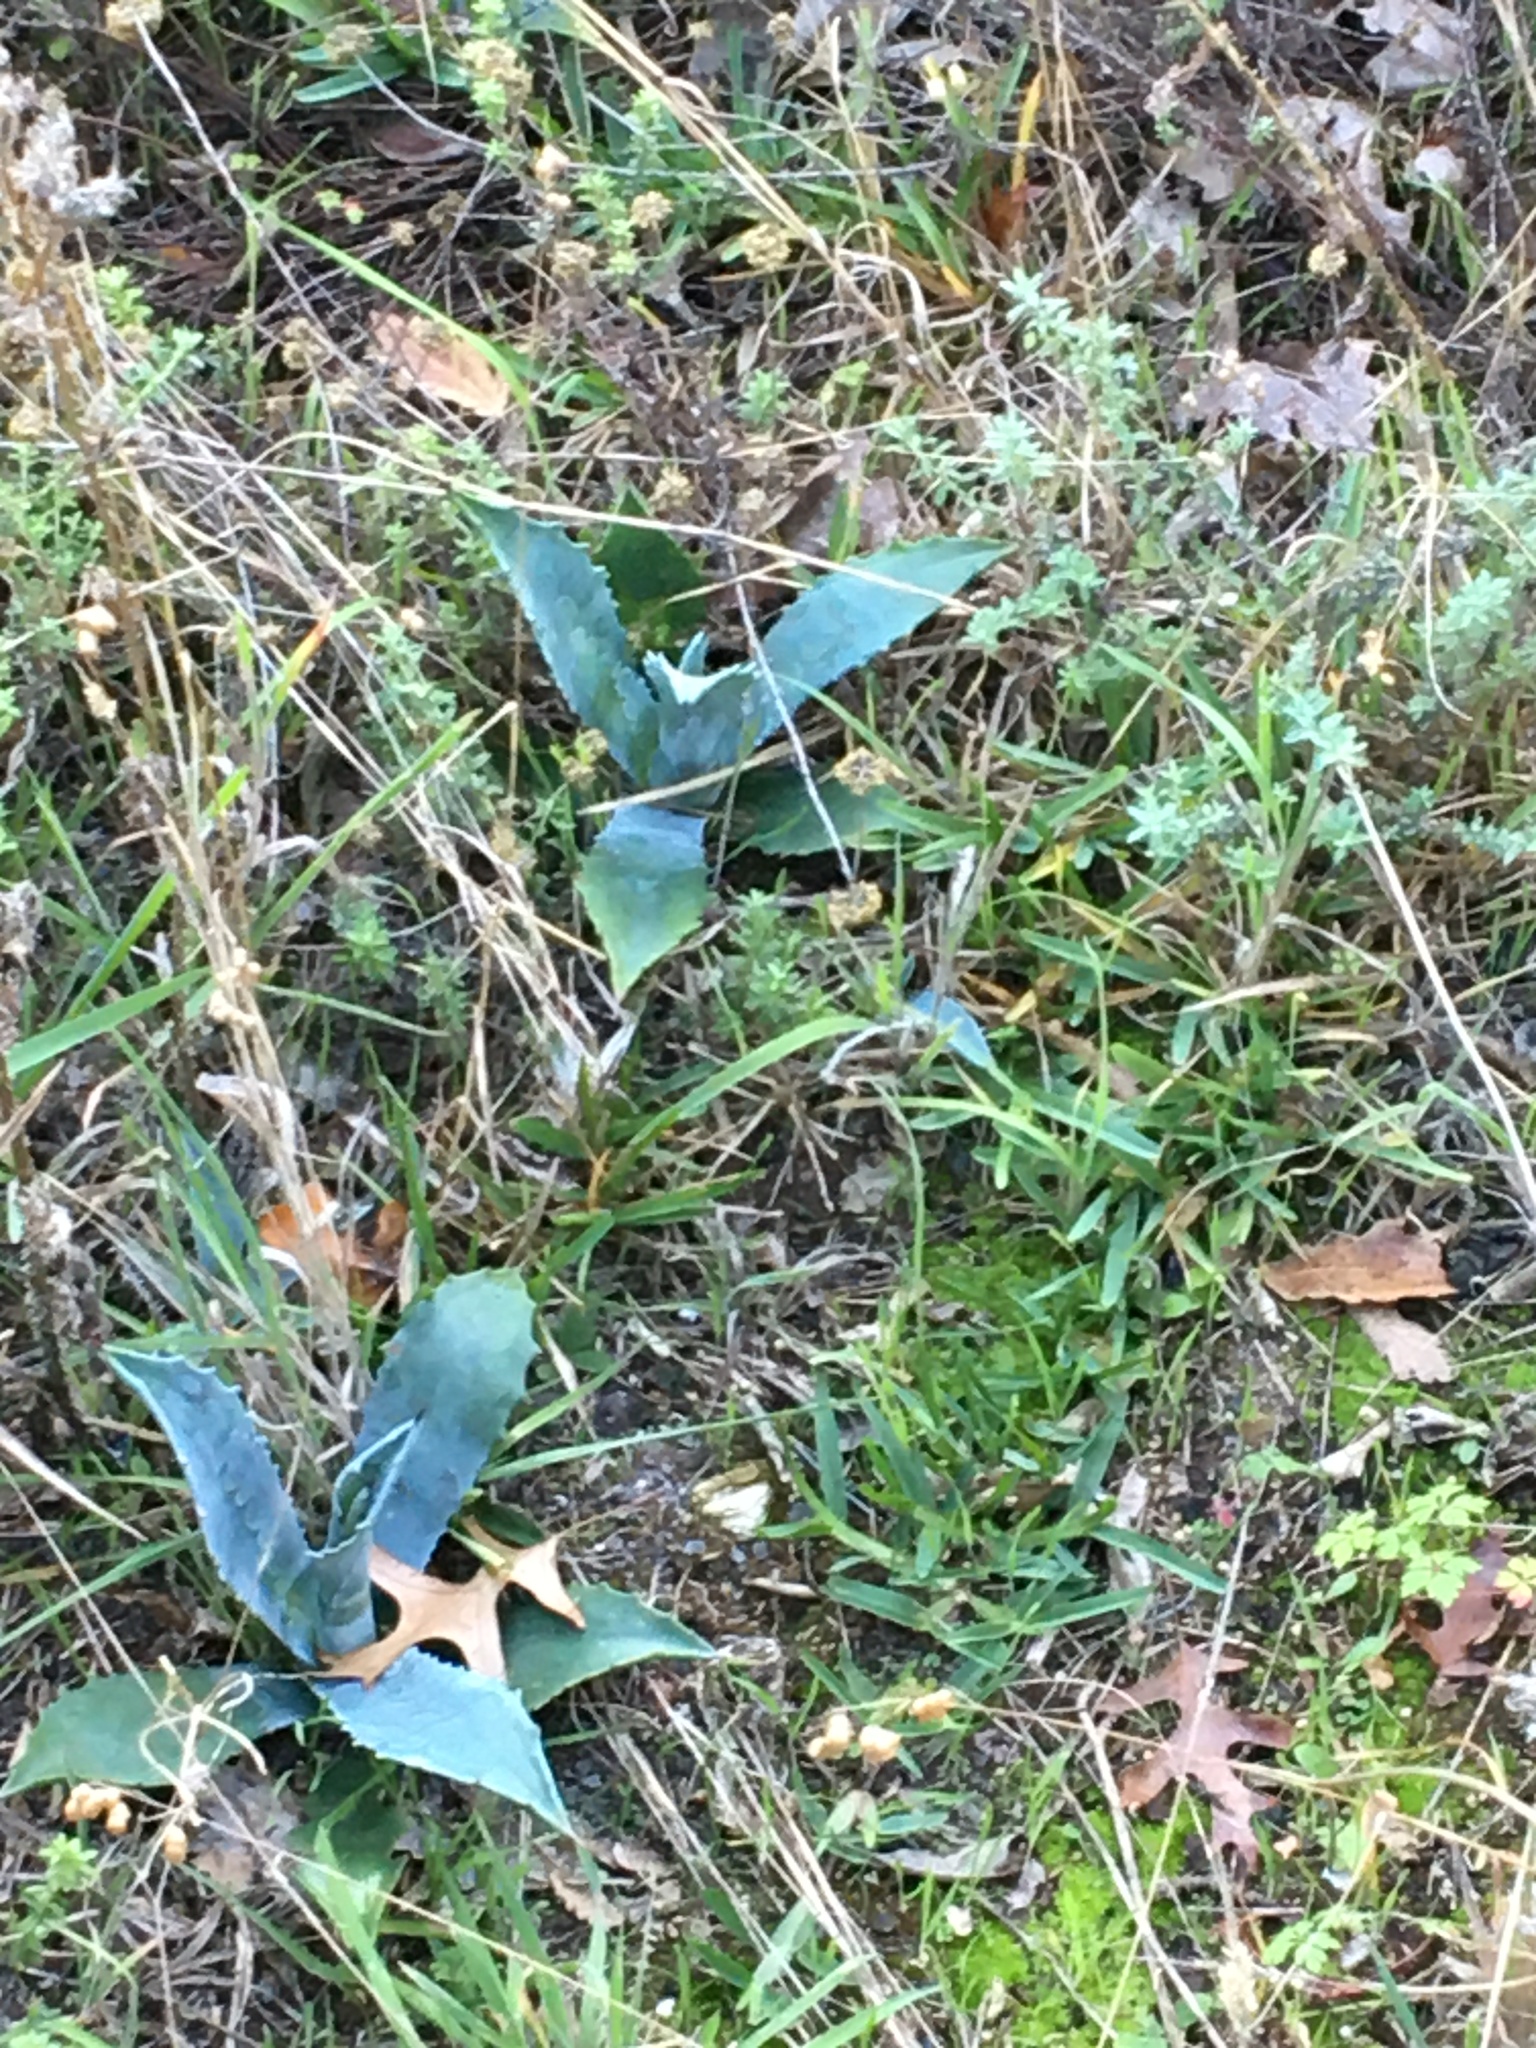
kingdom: Plantae
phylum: Tracheophyta
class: Liliopsida
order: Asparagales
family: Asparagaceae
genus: Agave
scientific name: Agave americana
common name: Centuryplant
